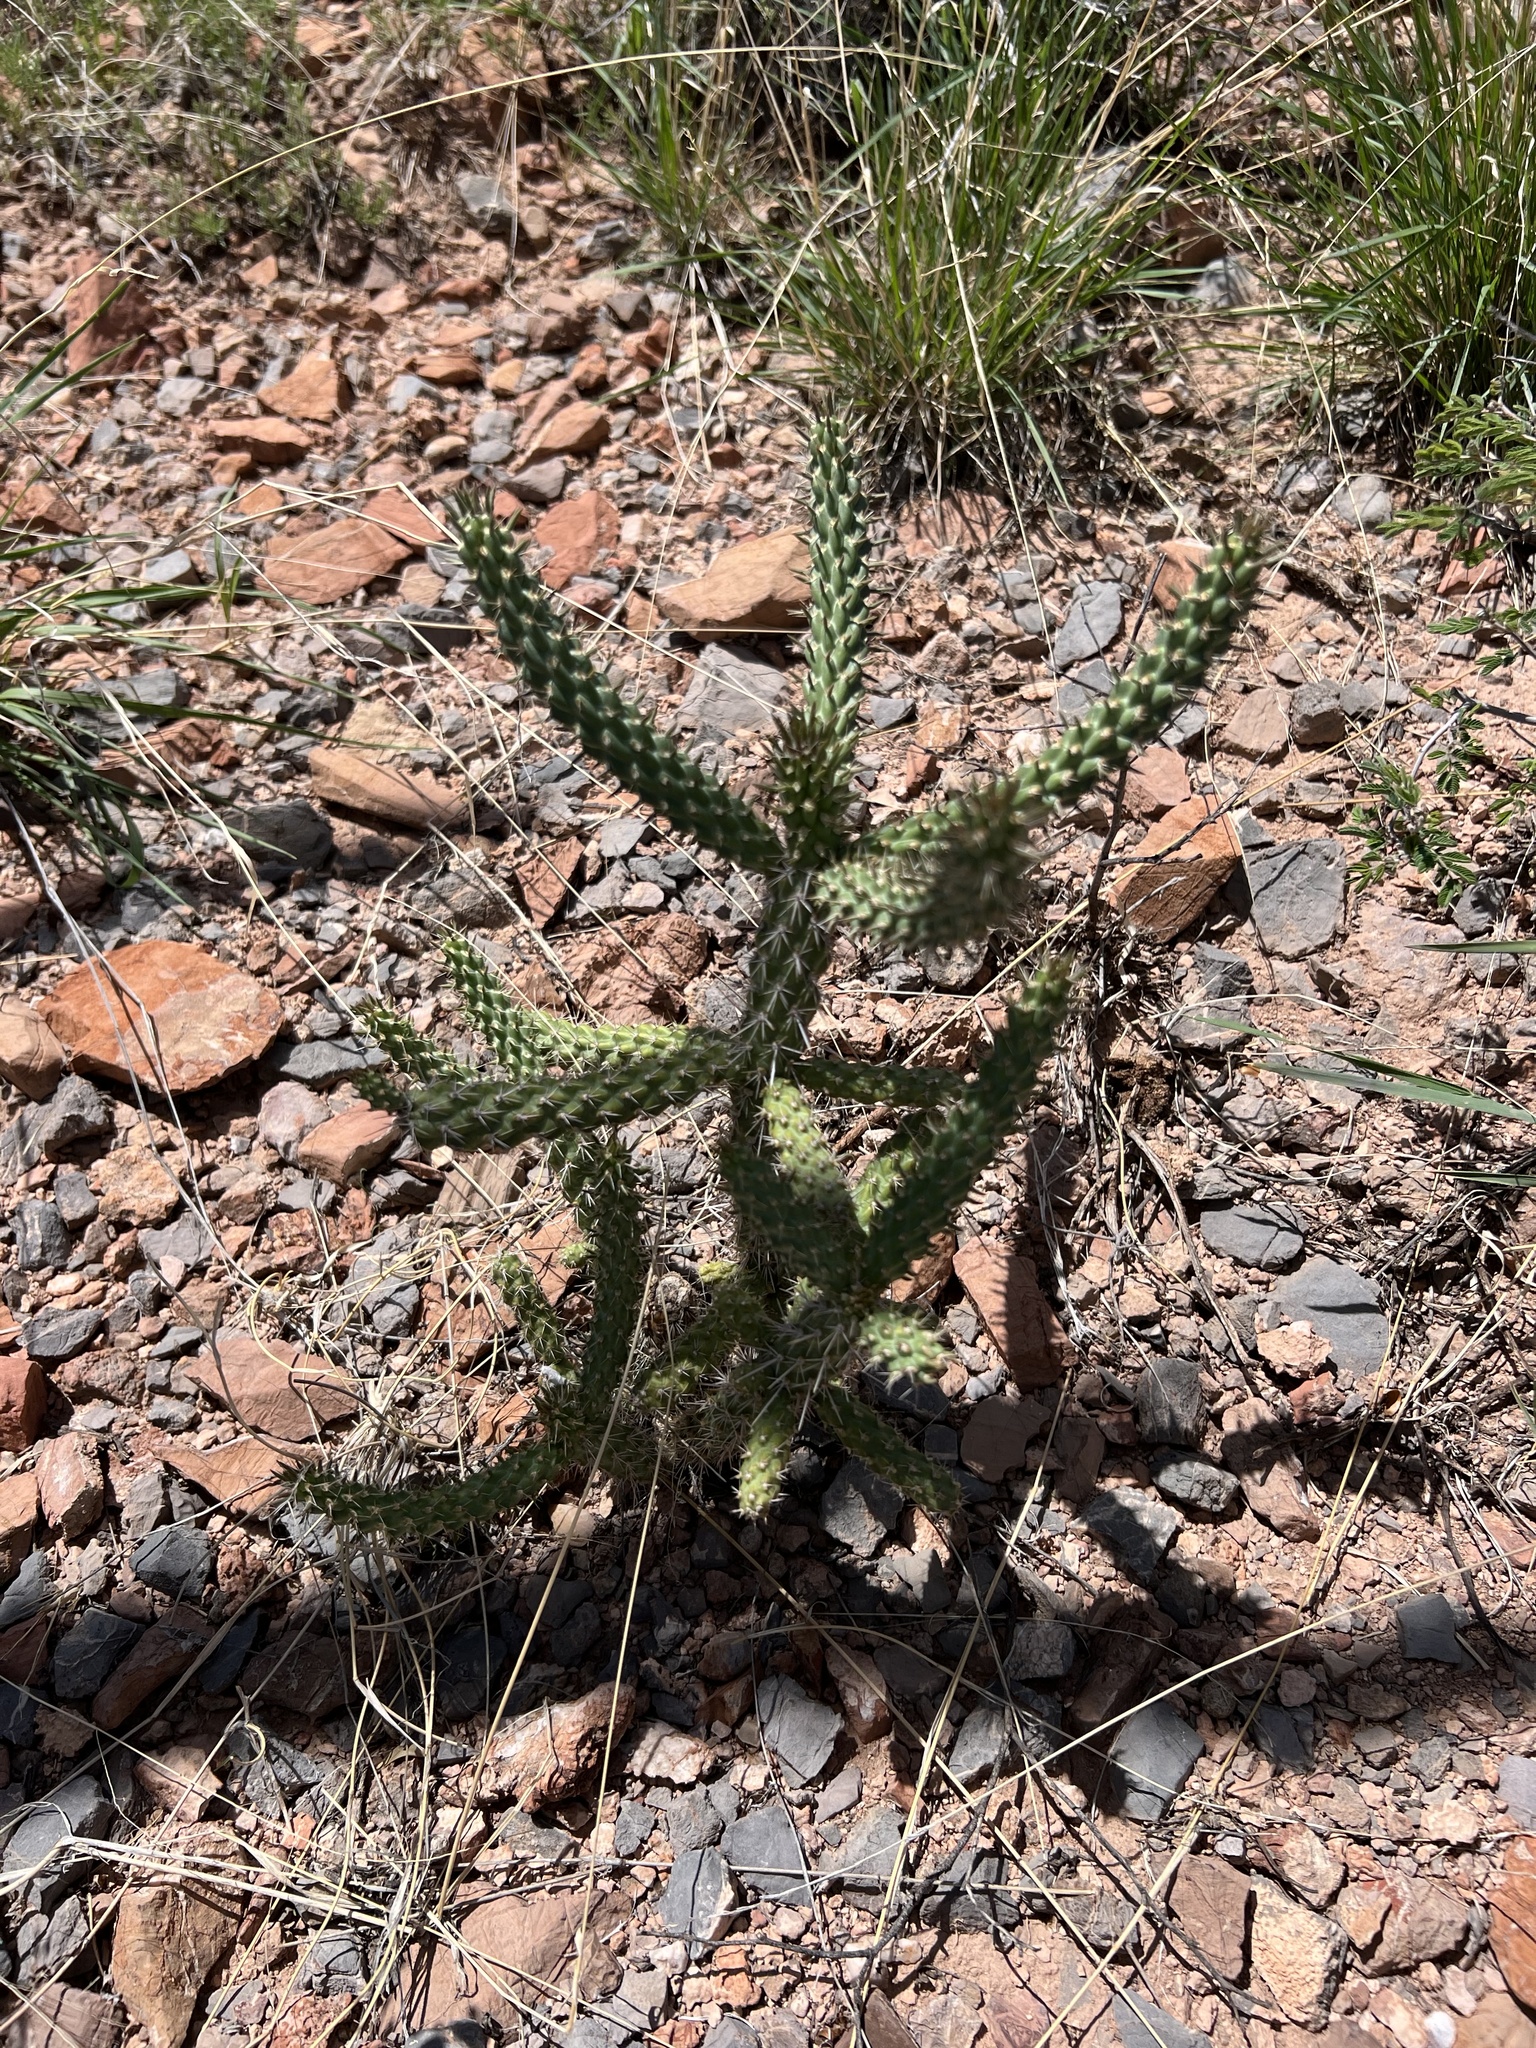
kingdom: Plantae
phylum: Tracheophyta
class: Magnoliopsida
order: Caryophyllales
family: Cactaceae
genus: Cylindropuntia
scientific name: Cylindropuntia imbricata
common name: Candelabrum cactus
